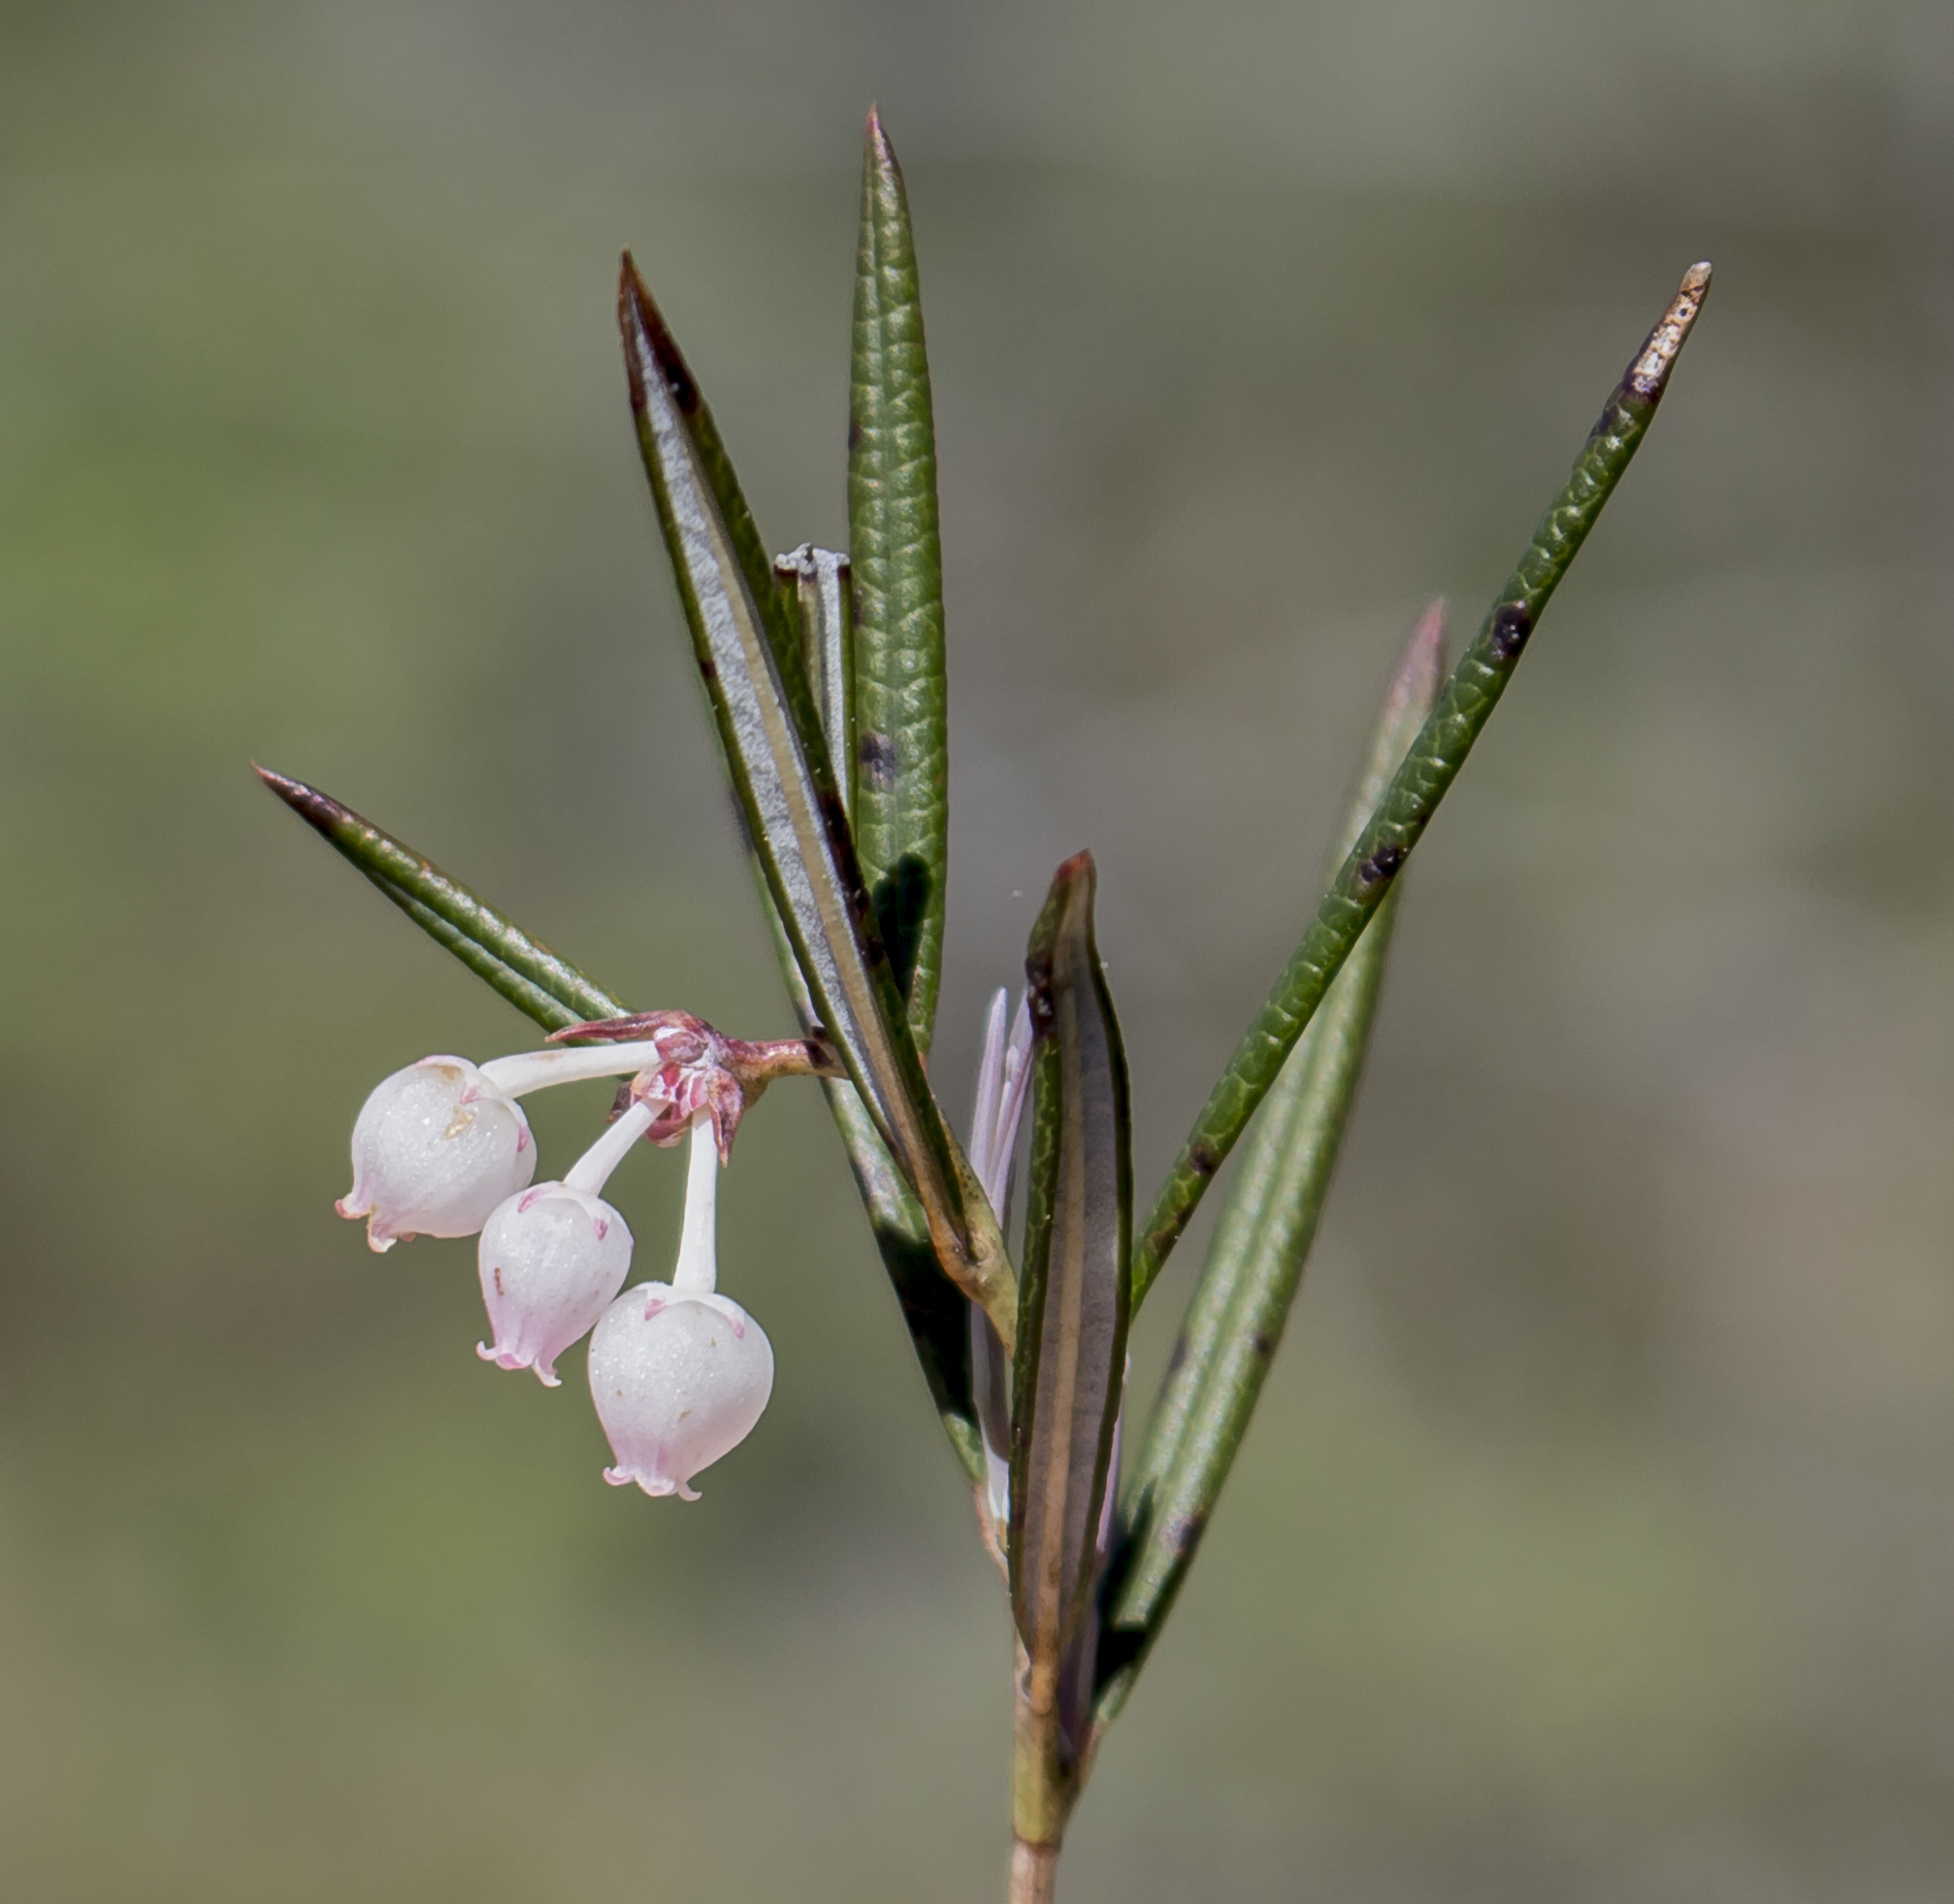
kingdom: Plantae
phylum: Tracheophyta
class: Magnoliopsida
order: Ericales
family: Ericaceae
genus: Andromeda
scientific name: Andromeda polifolia
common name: Bog-rosemary
